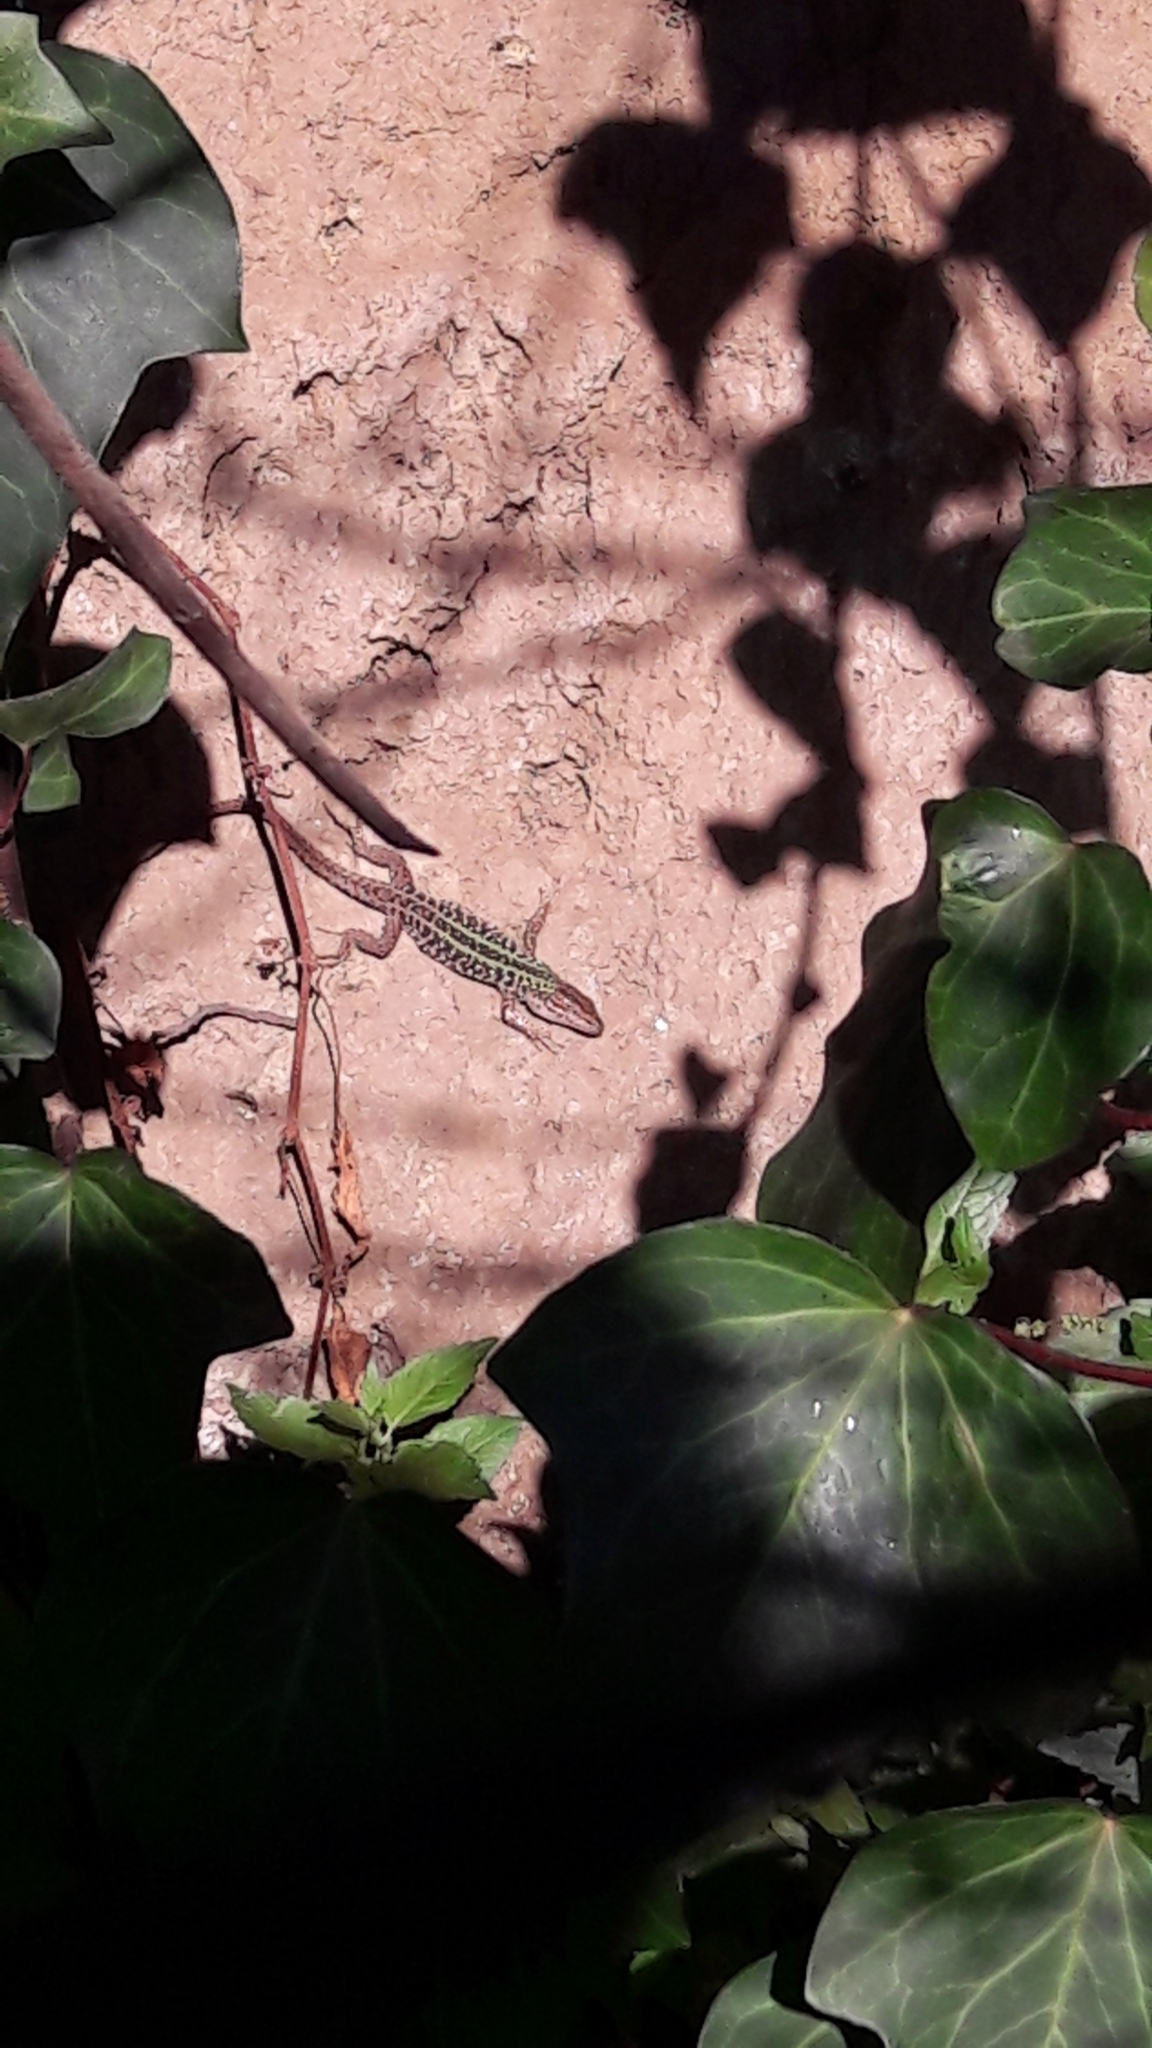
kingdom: Animalia
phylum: Chordata
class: Squamata
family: Lacertidae
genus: Podarcis
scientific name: Podarcis siculus
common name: Italian wall lizard
